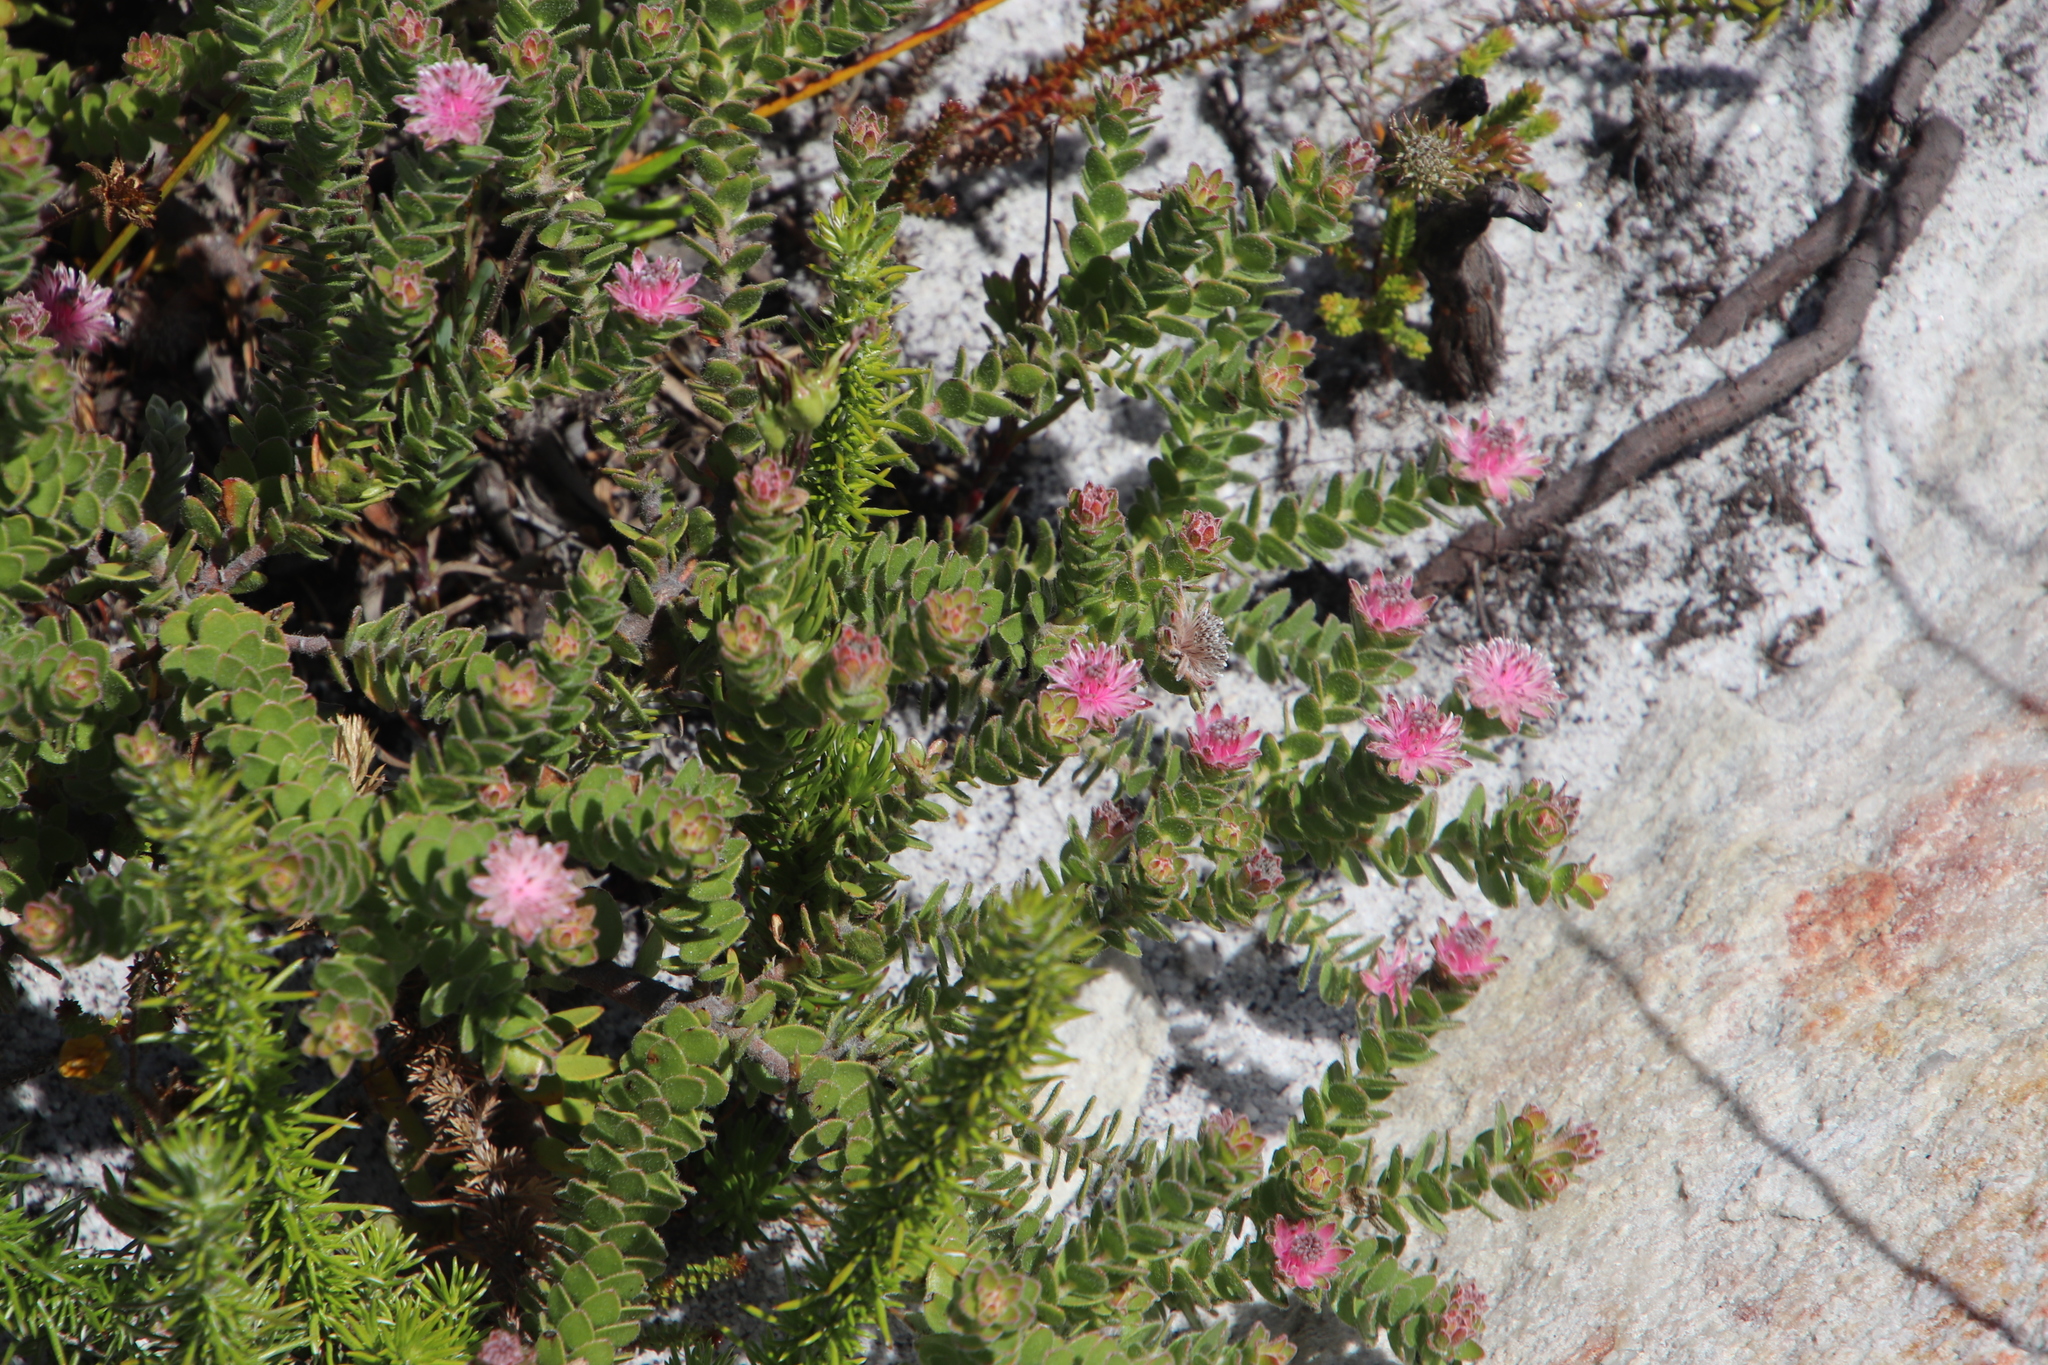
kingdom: Plantae
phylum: Tracheophyta
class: Magnoliopsida
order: Proteales
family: Proteaceae
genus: Diastella
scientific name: Diastella divaricata
